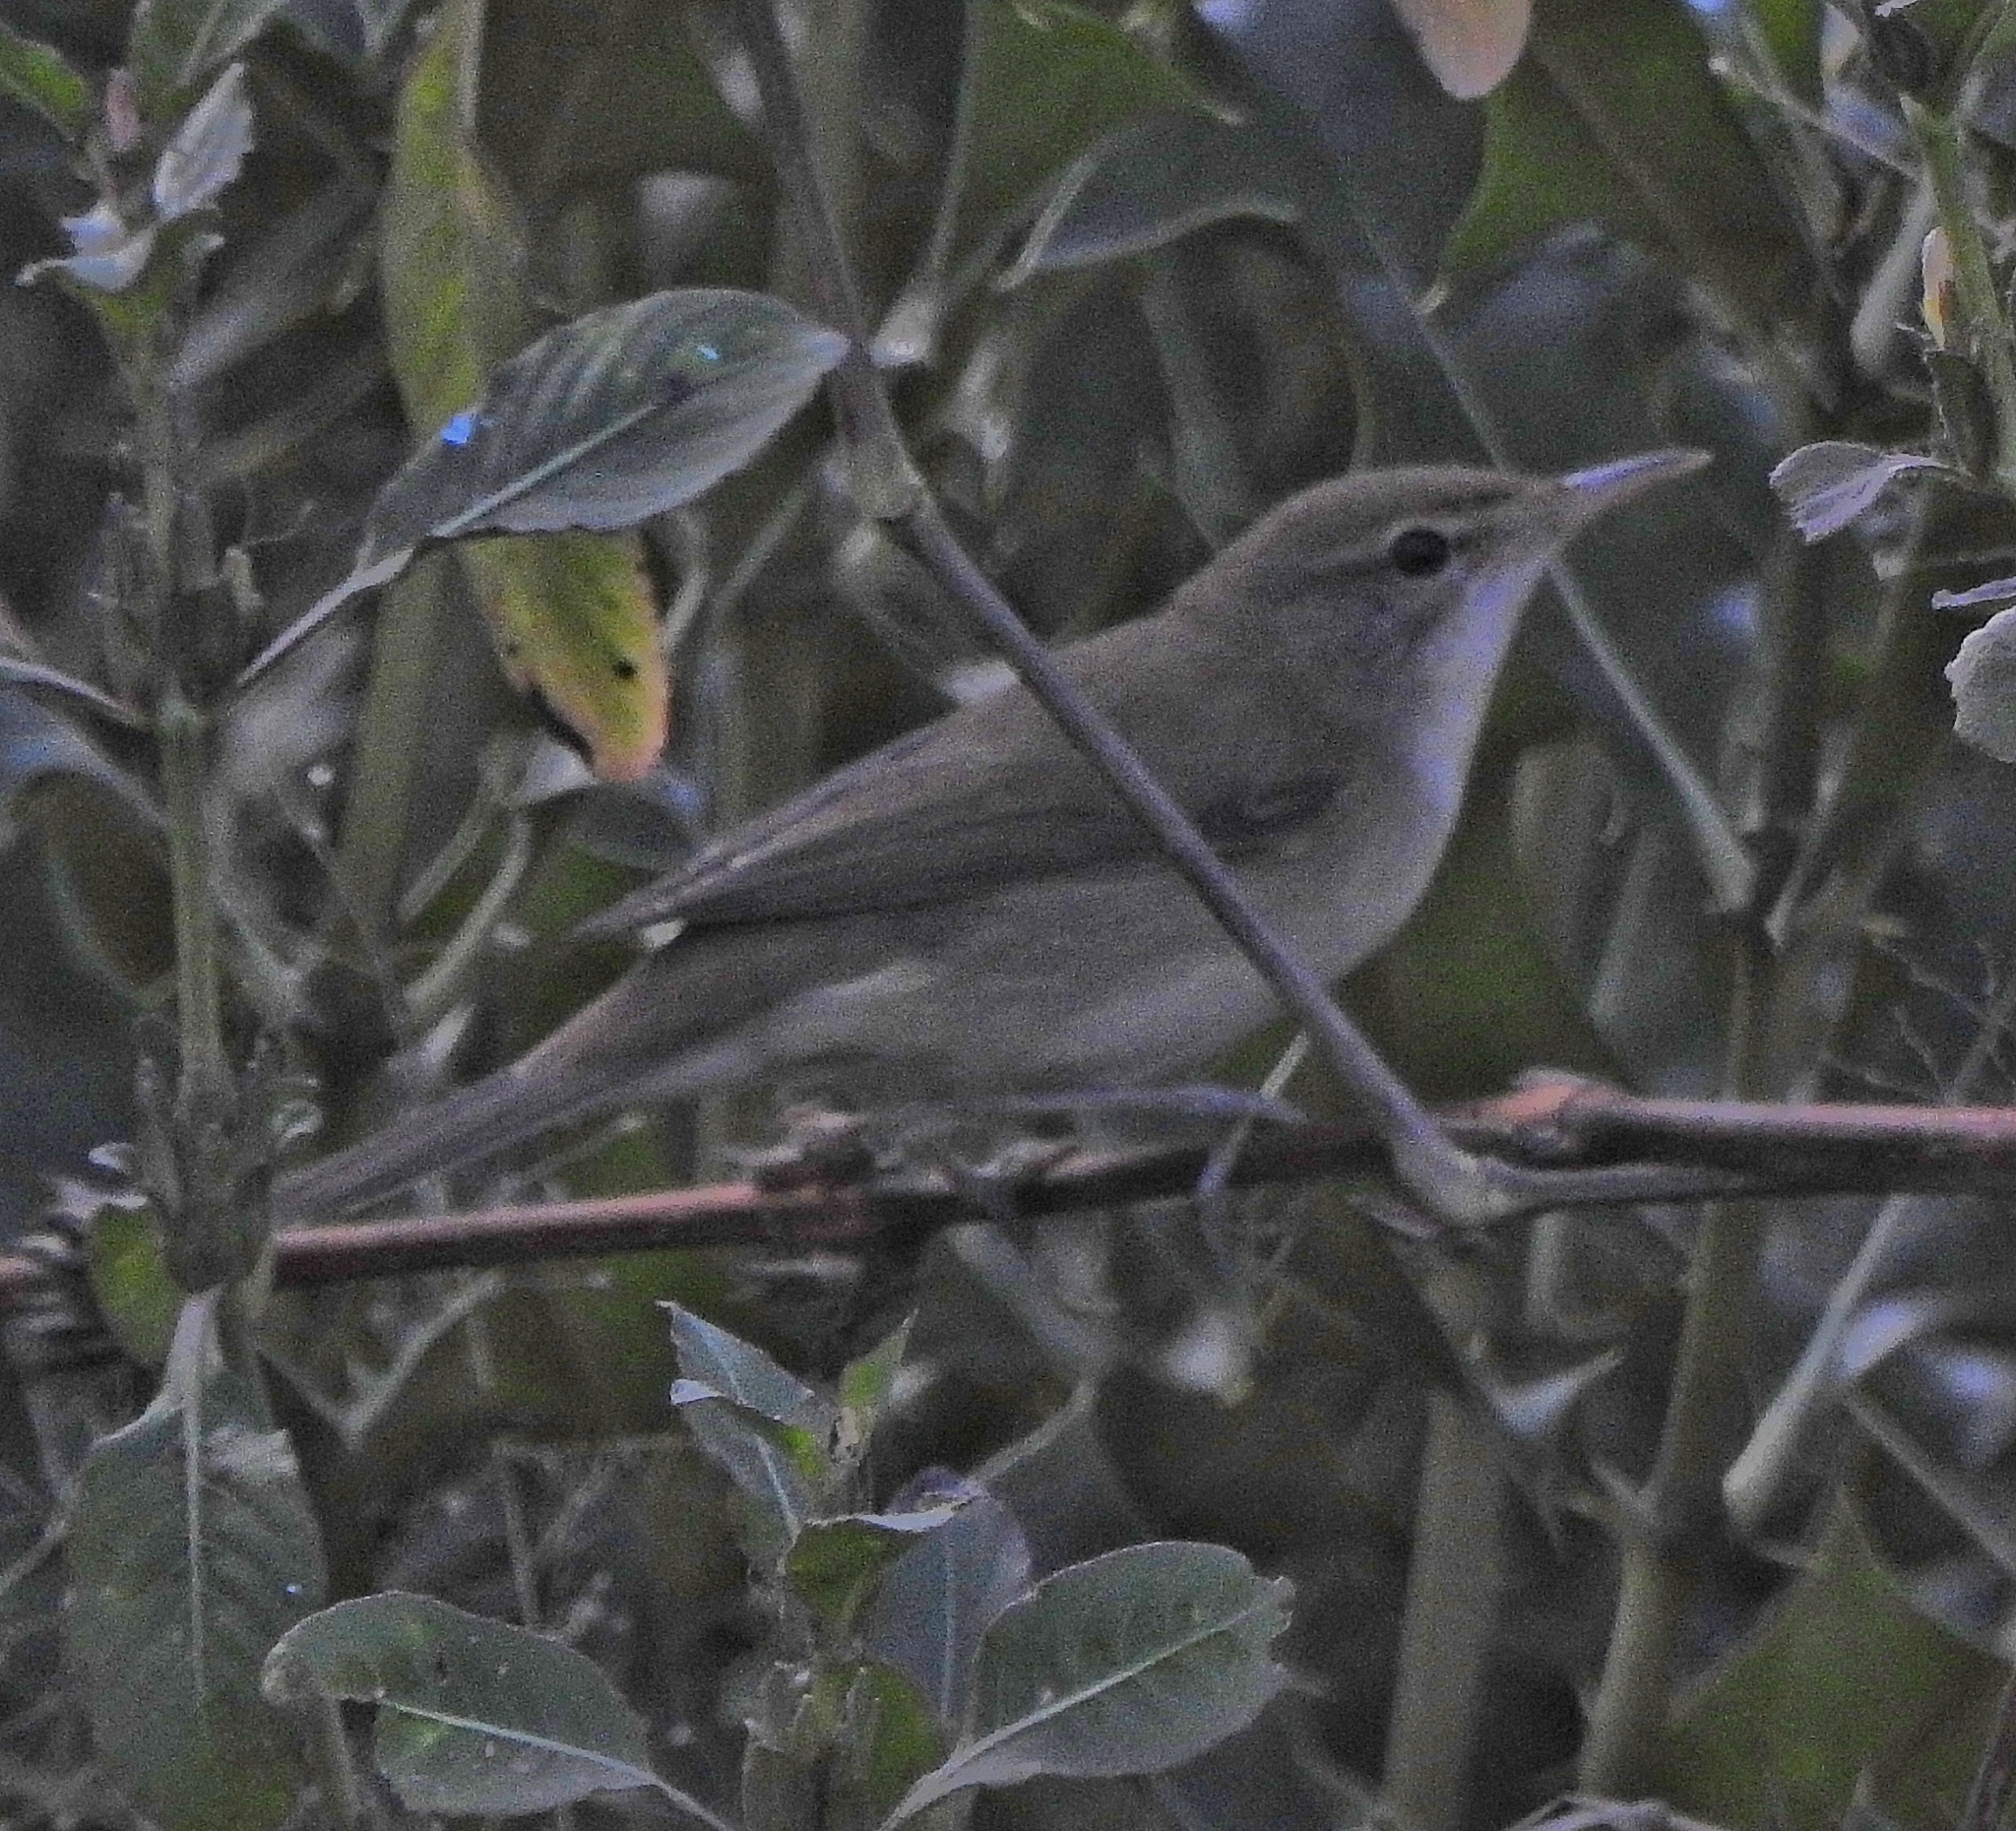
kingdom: Animalia
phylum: Chordata
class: Aves
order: Passeriformes
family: Acrocephalidae
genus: Acrocephalus
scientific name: Acrocephalus dumetorum
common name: Blyth's reed warbler
